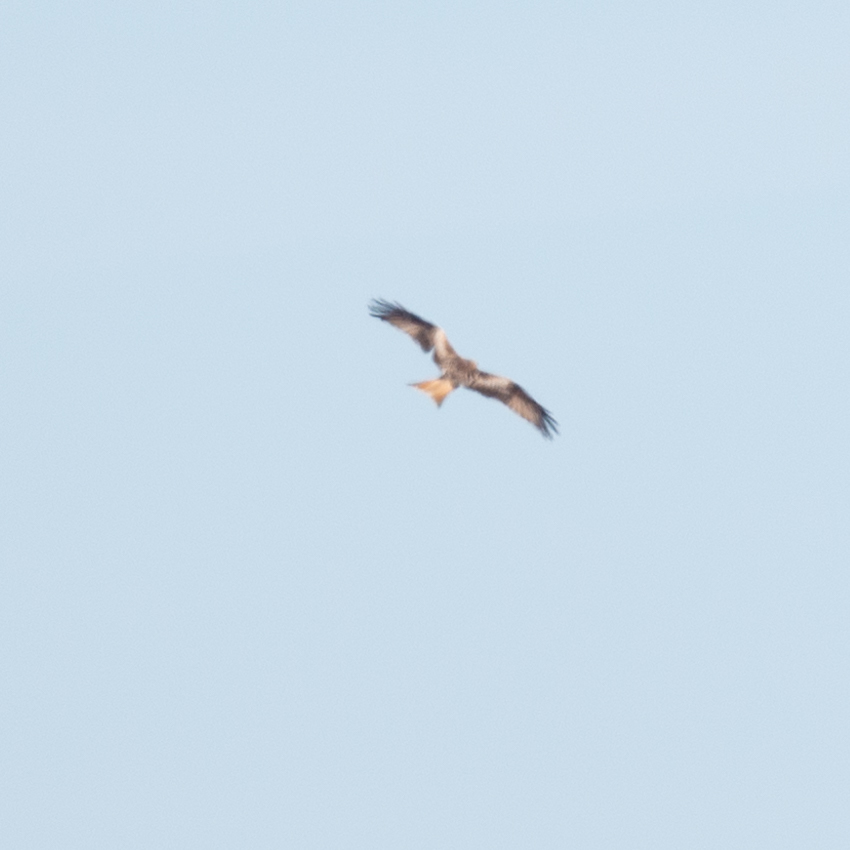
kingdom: Animalia
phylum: Chordata
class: Aves
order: Accipitriformes
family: Accipitridae
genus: Milvus
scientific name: Milvus milvus
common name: Red kite
